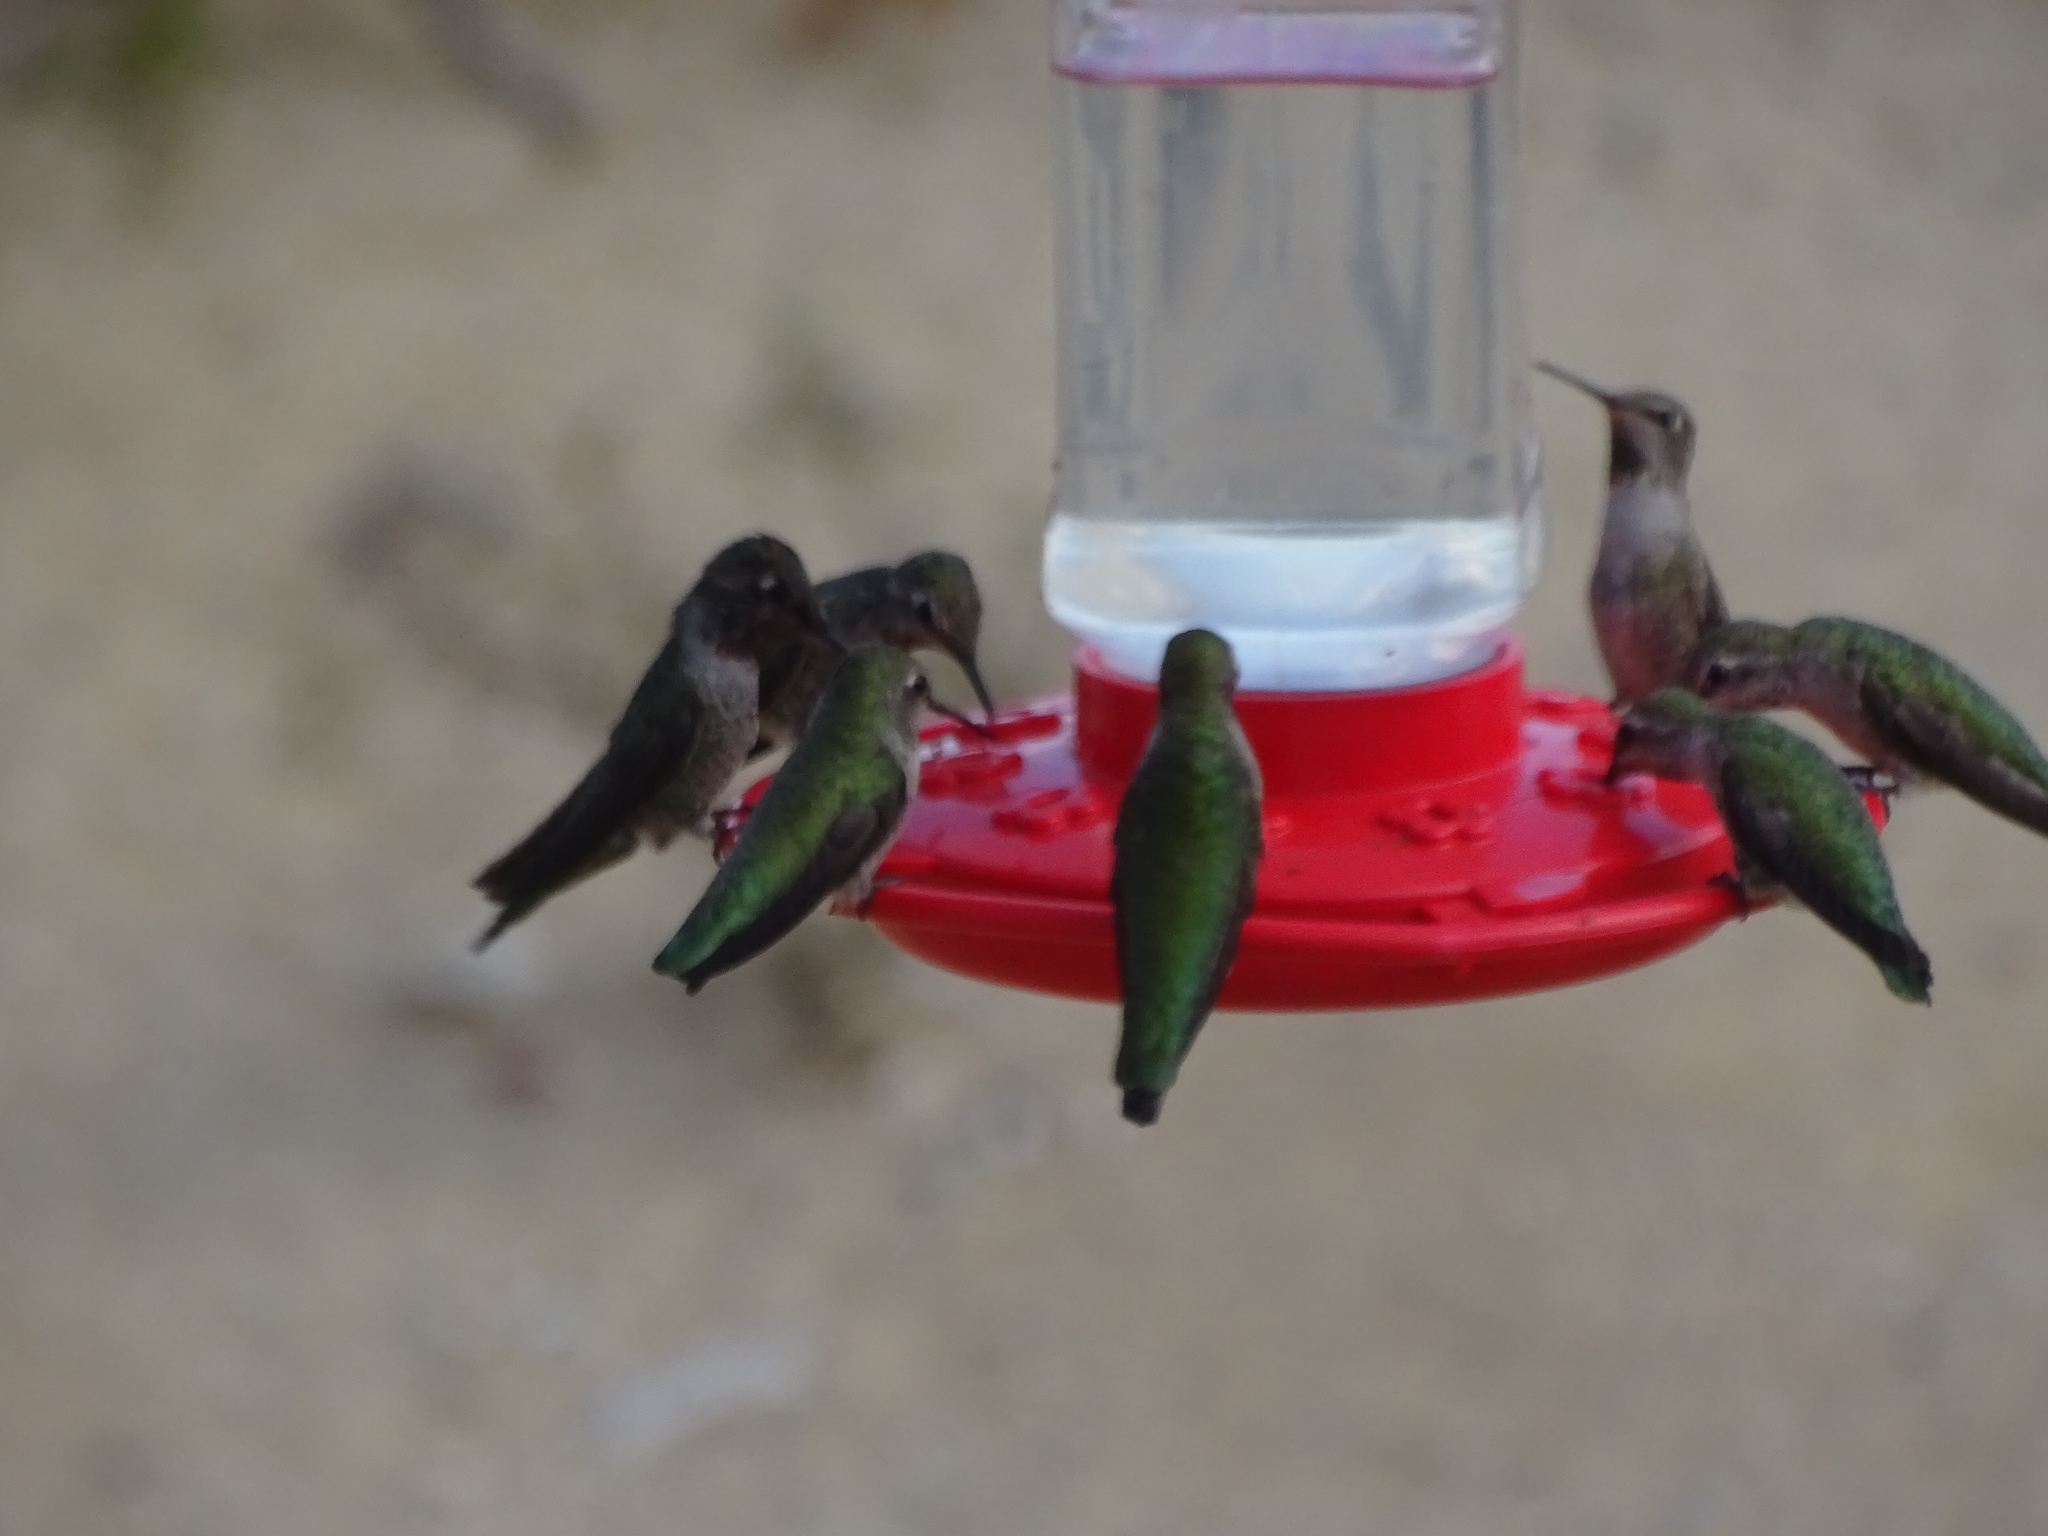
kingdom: Animalia
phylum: Chordata
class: Aves
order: Apodiformes
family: Trochilidae
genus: Calypte
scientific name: Calypte anna
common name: Anna's hummingbird
